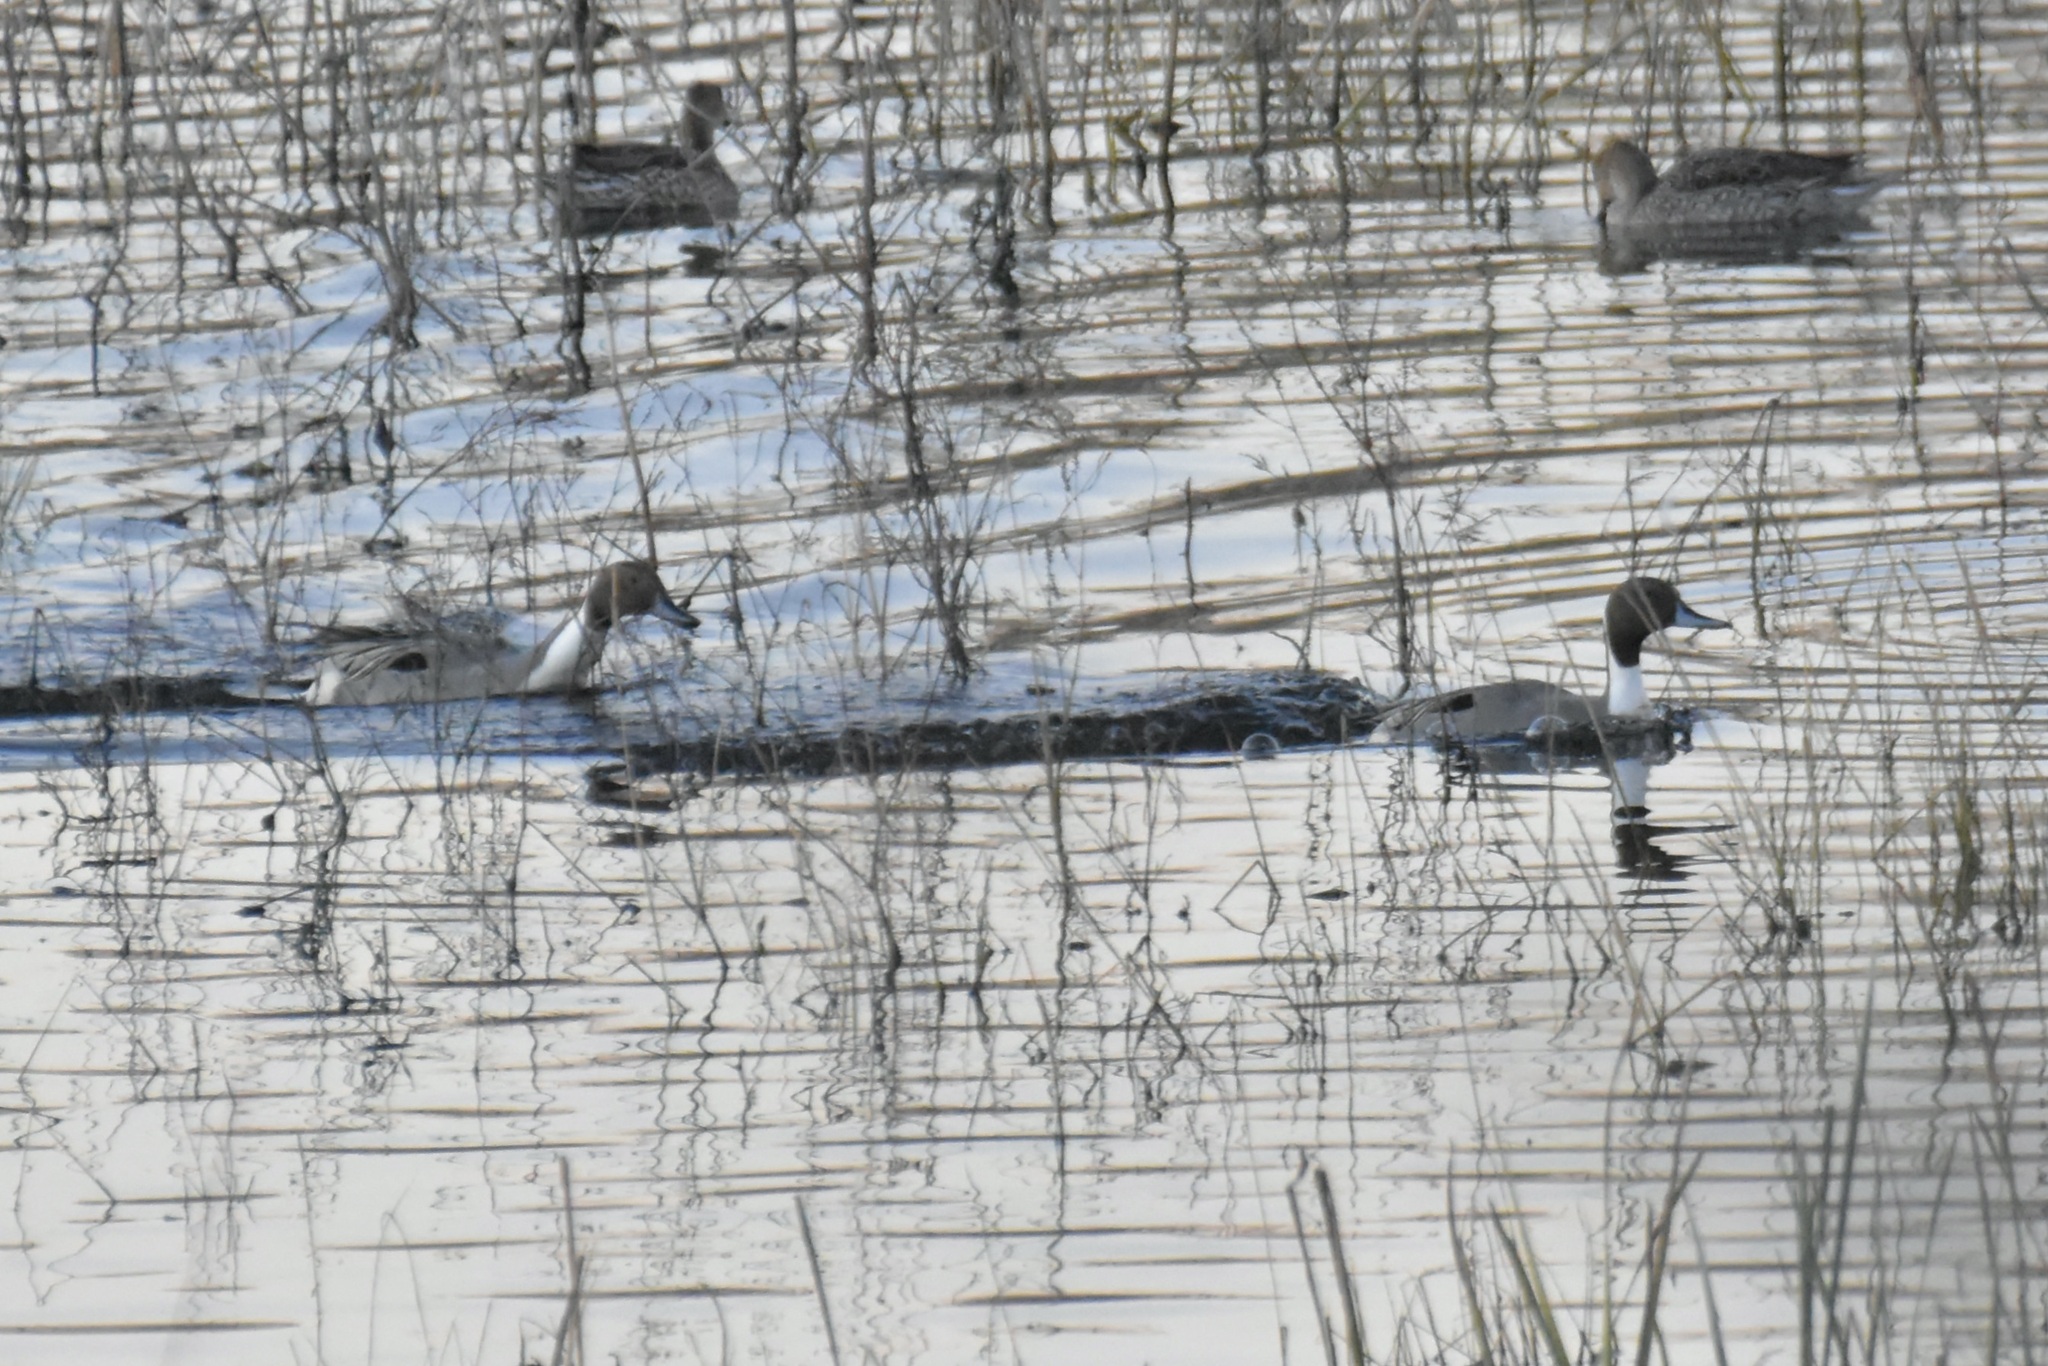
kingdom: Animalia
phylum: Chordata
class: Aves
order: Anseriformes
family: Anatidae
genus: Anas
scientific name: Anas acuta
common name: Northern pintail
